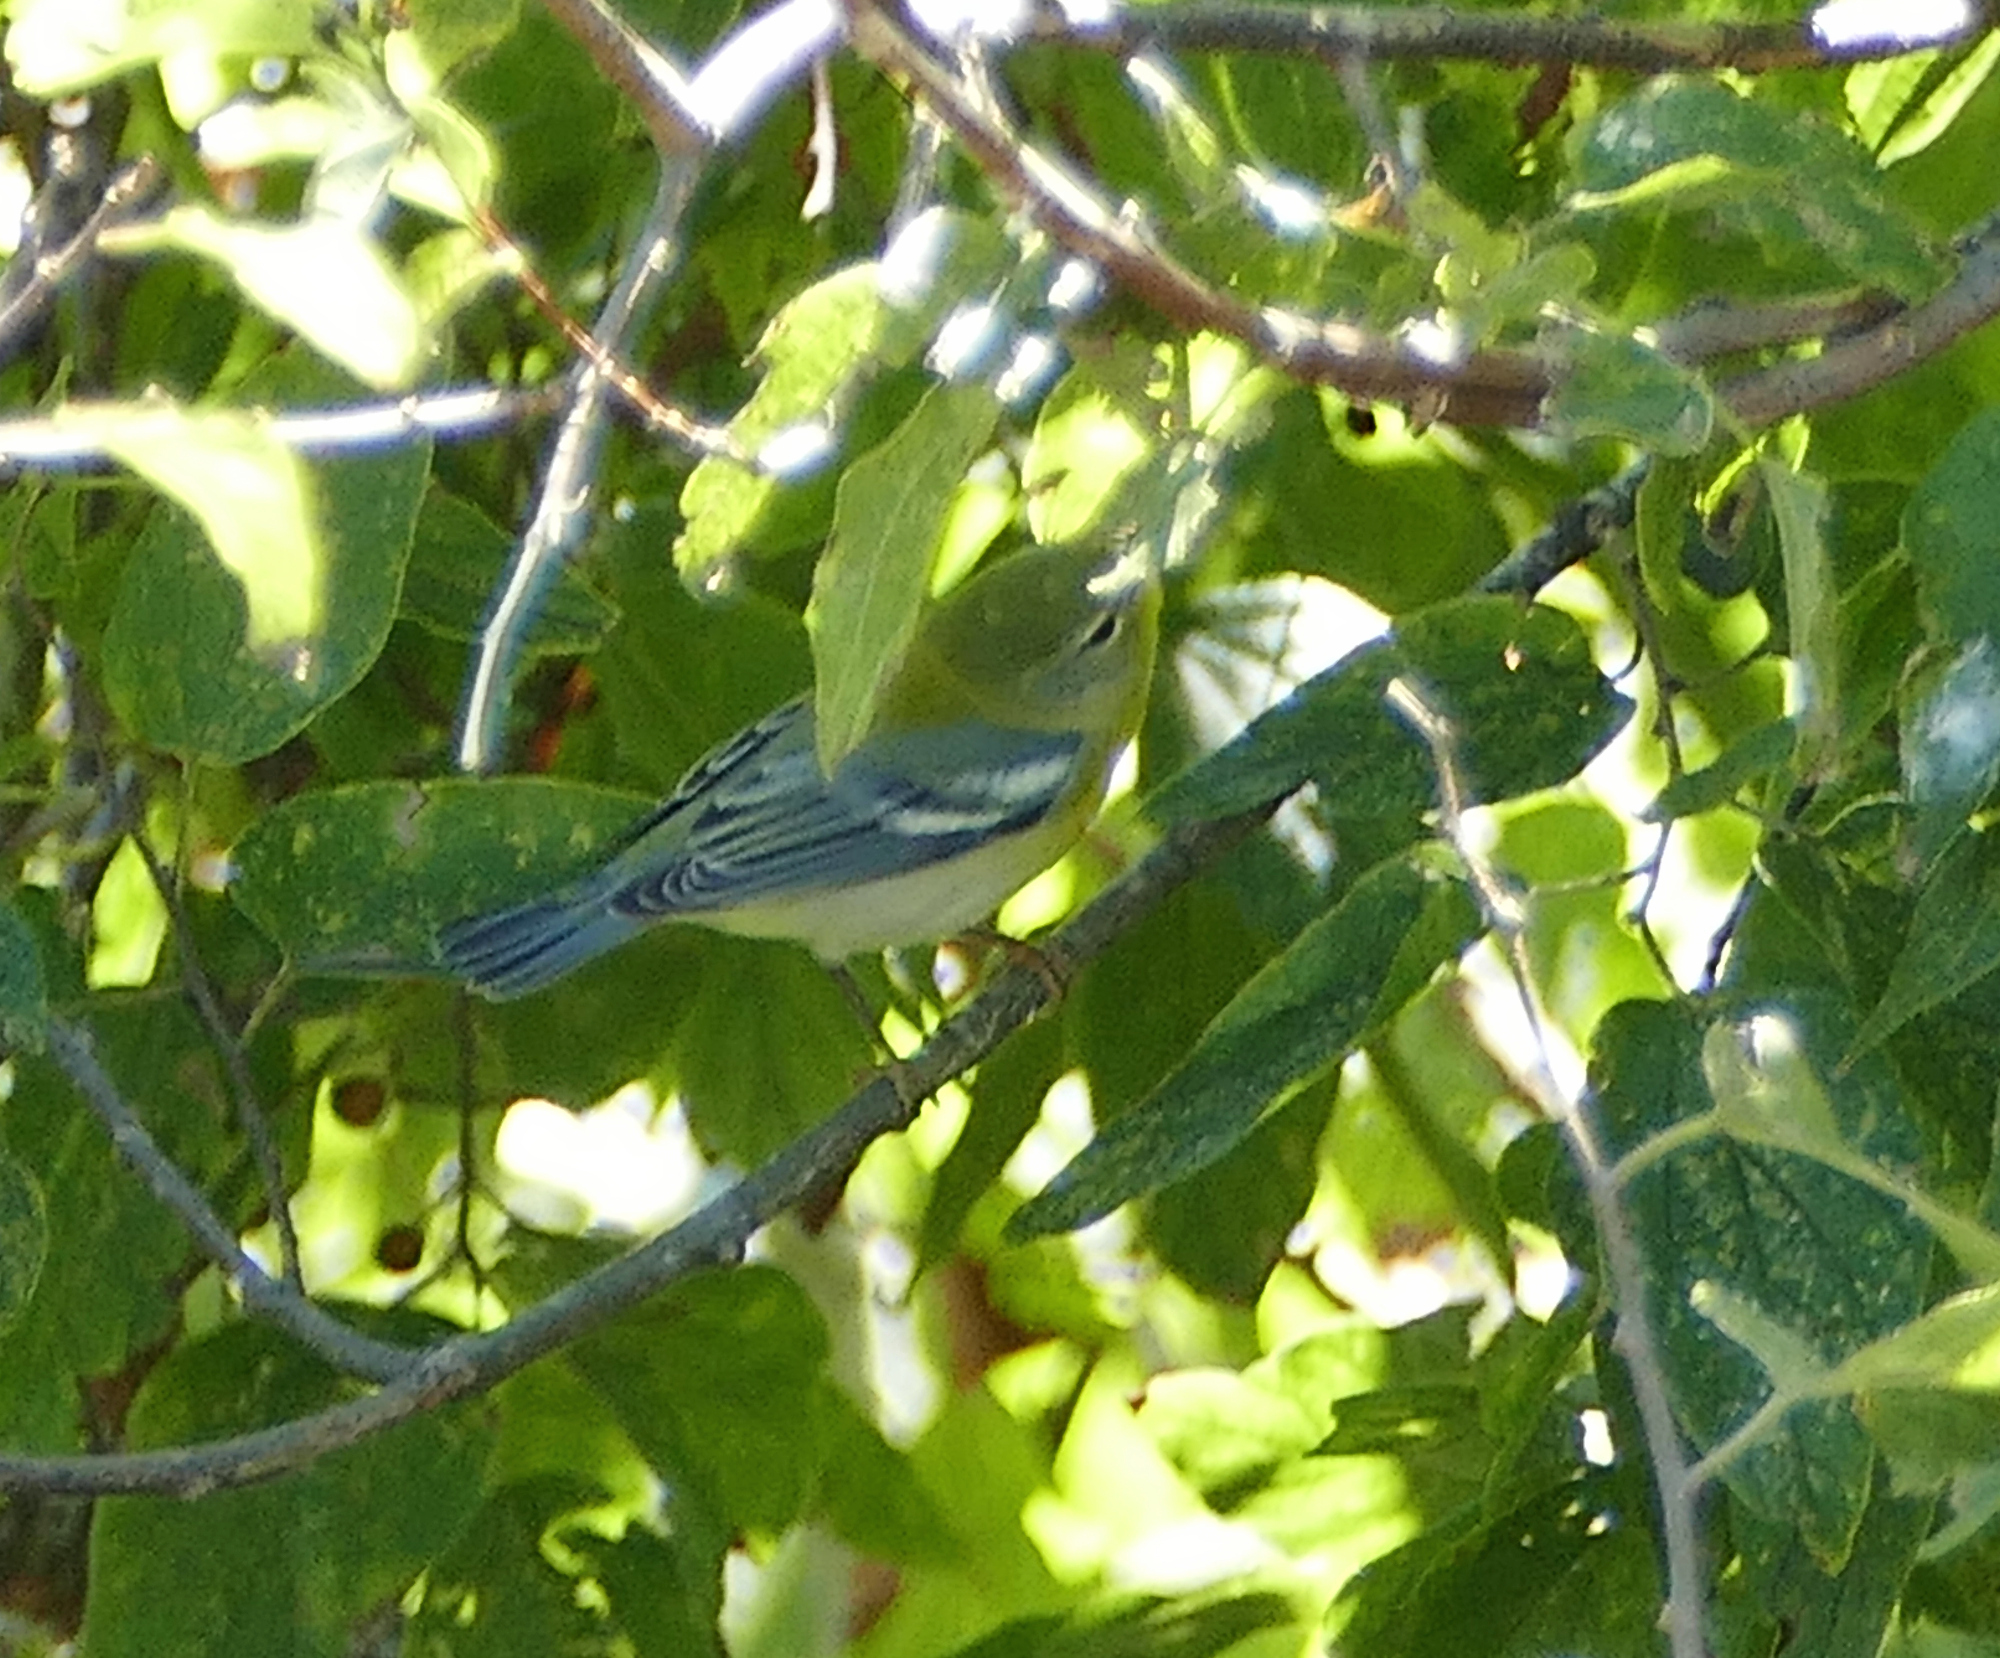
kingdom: Animalia
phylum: Chordata
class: Aves
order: Passeriformes
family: Parulidae
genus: Setophaga
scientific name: Setophaga americana
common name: Northern parula
